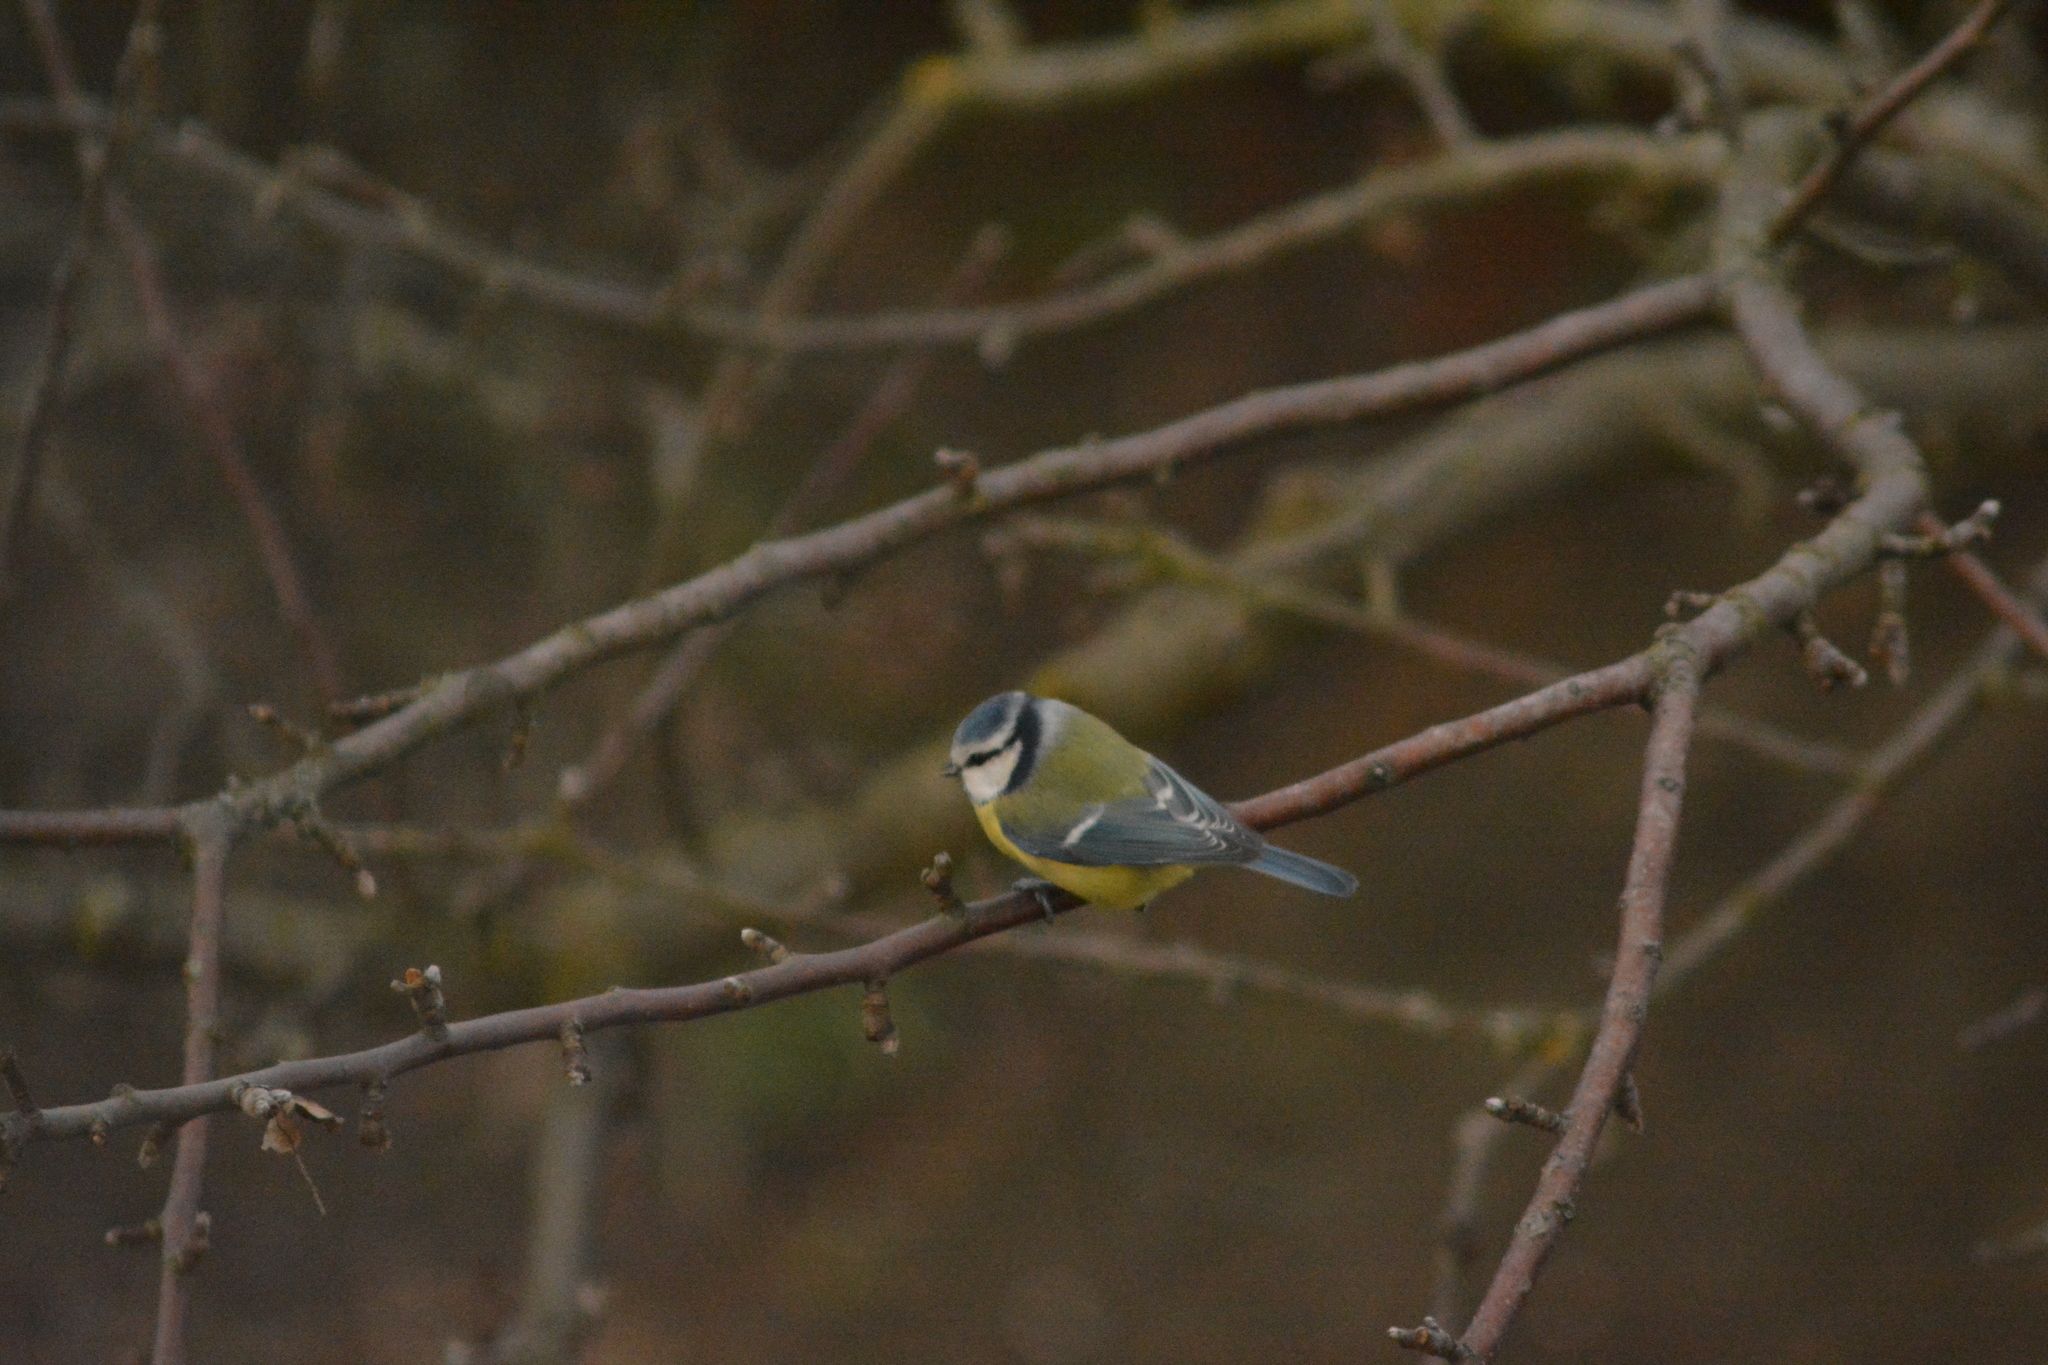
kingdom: Animalia
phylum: Chordata
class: Aves
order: Passeriformes
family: Paridae
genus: Cyanistes
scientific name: Cyanistes caeruleus
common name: Eurasian blue tit
